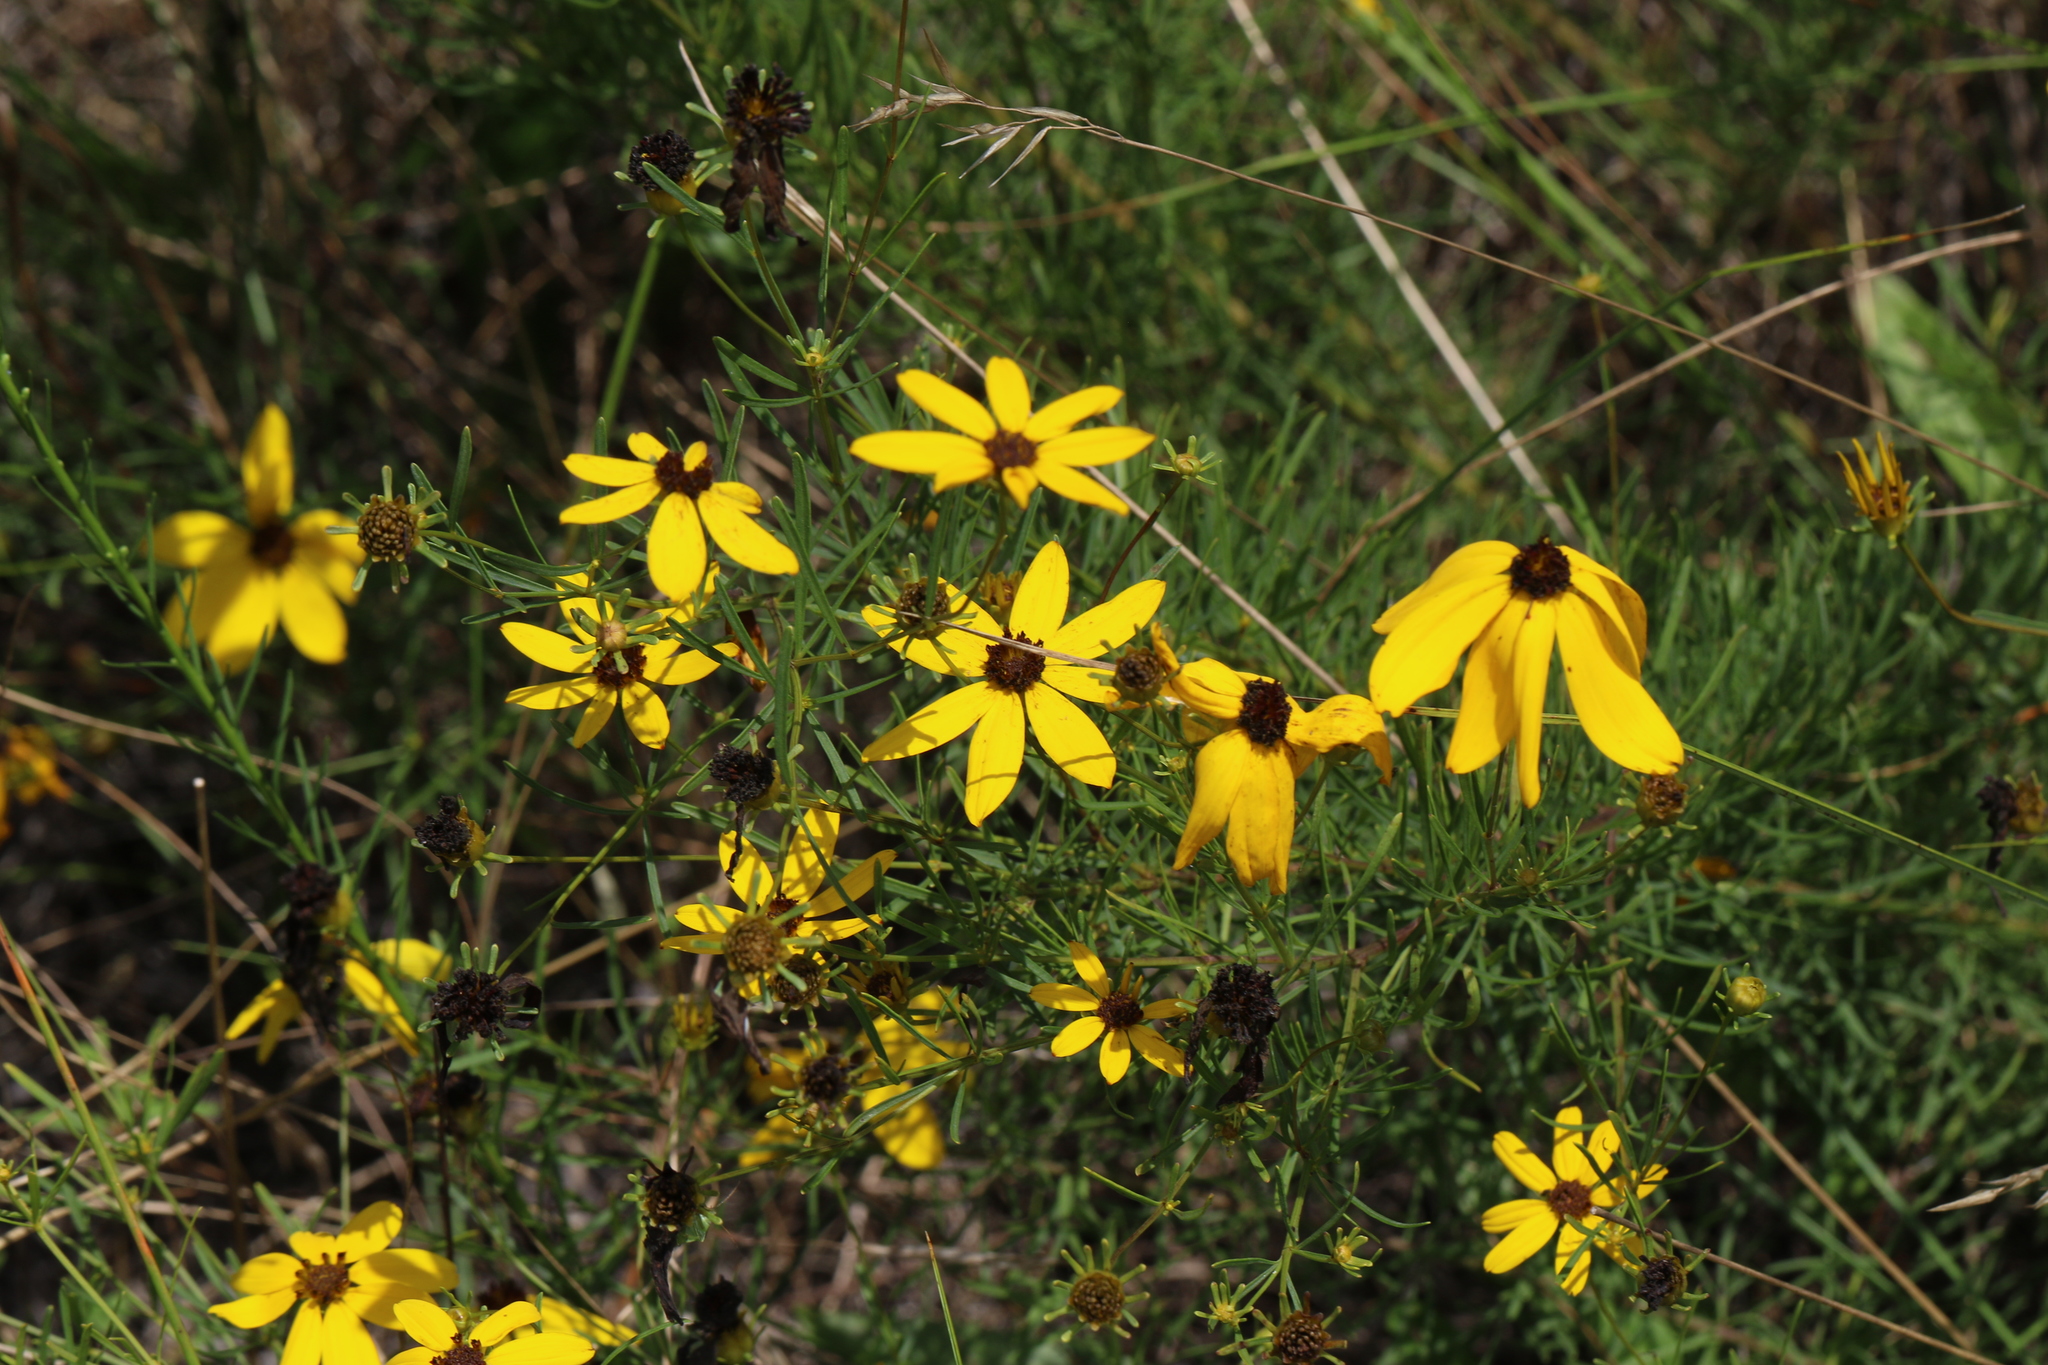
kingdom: Plantae
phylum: Tracheophyta
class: Magnoliopsida
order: Asterales
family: Asteraceae
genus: Coreopsis
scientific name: Coreopsis pulchra
